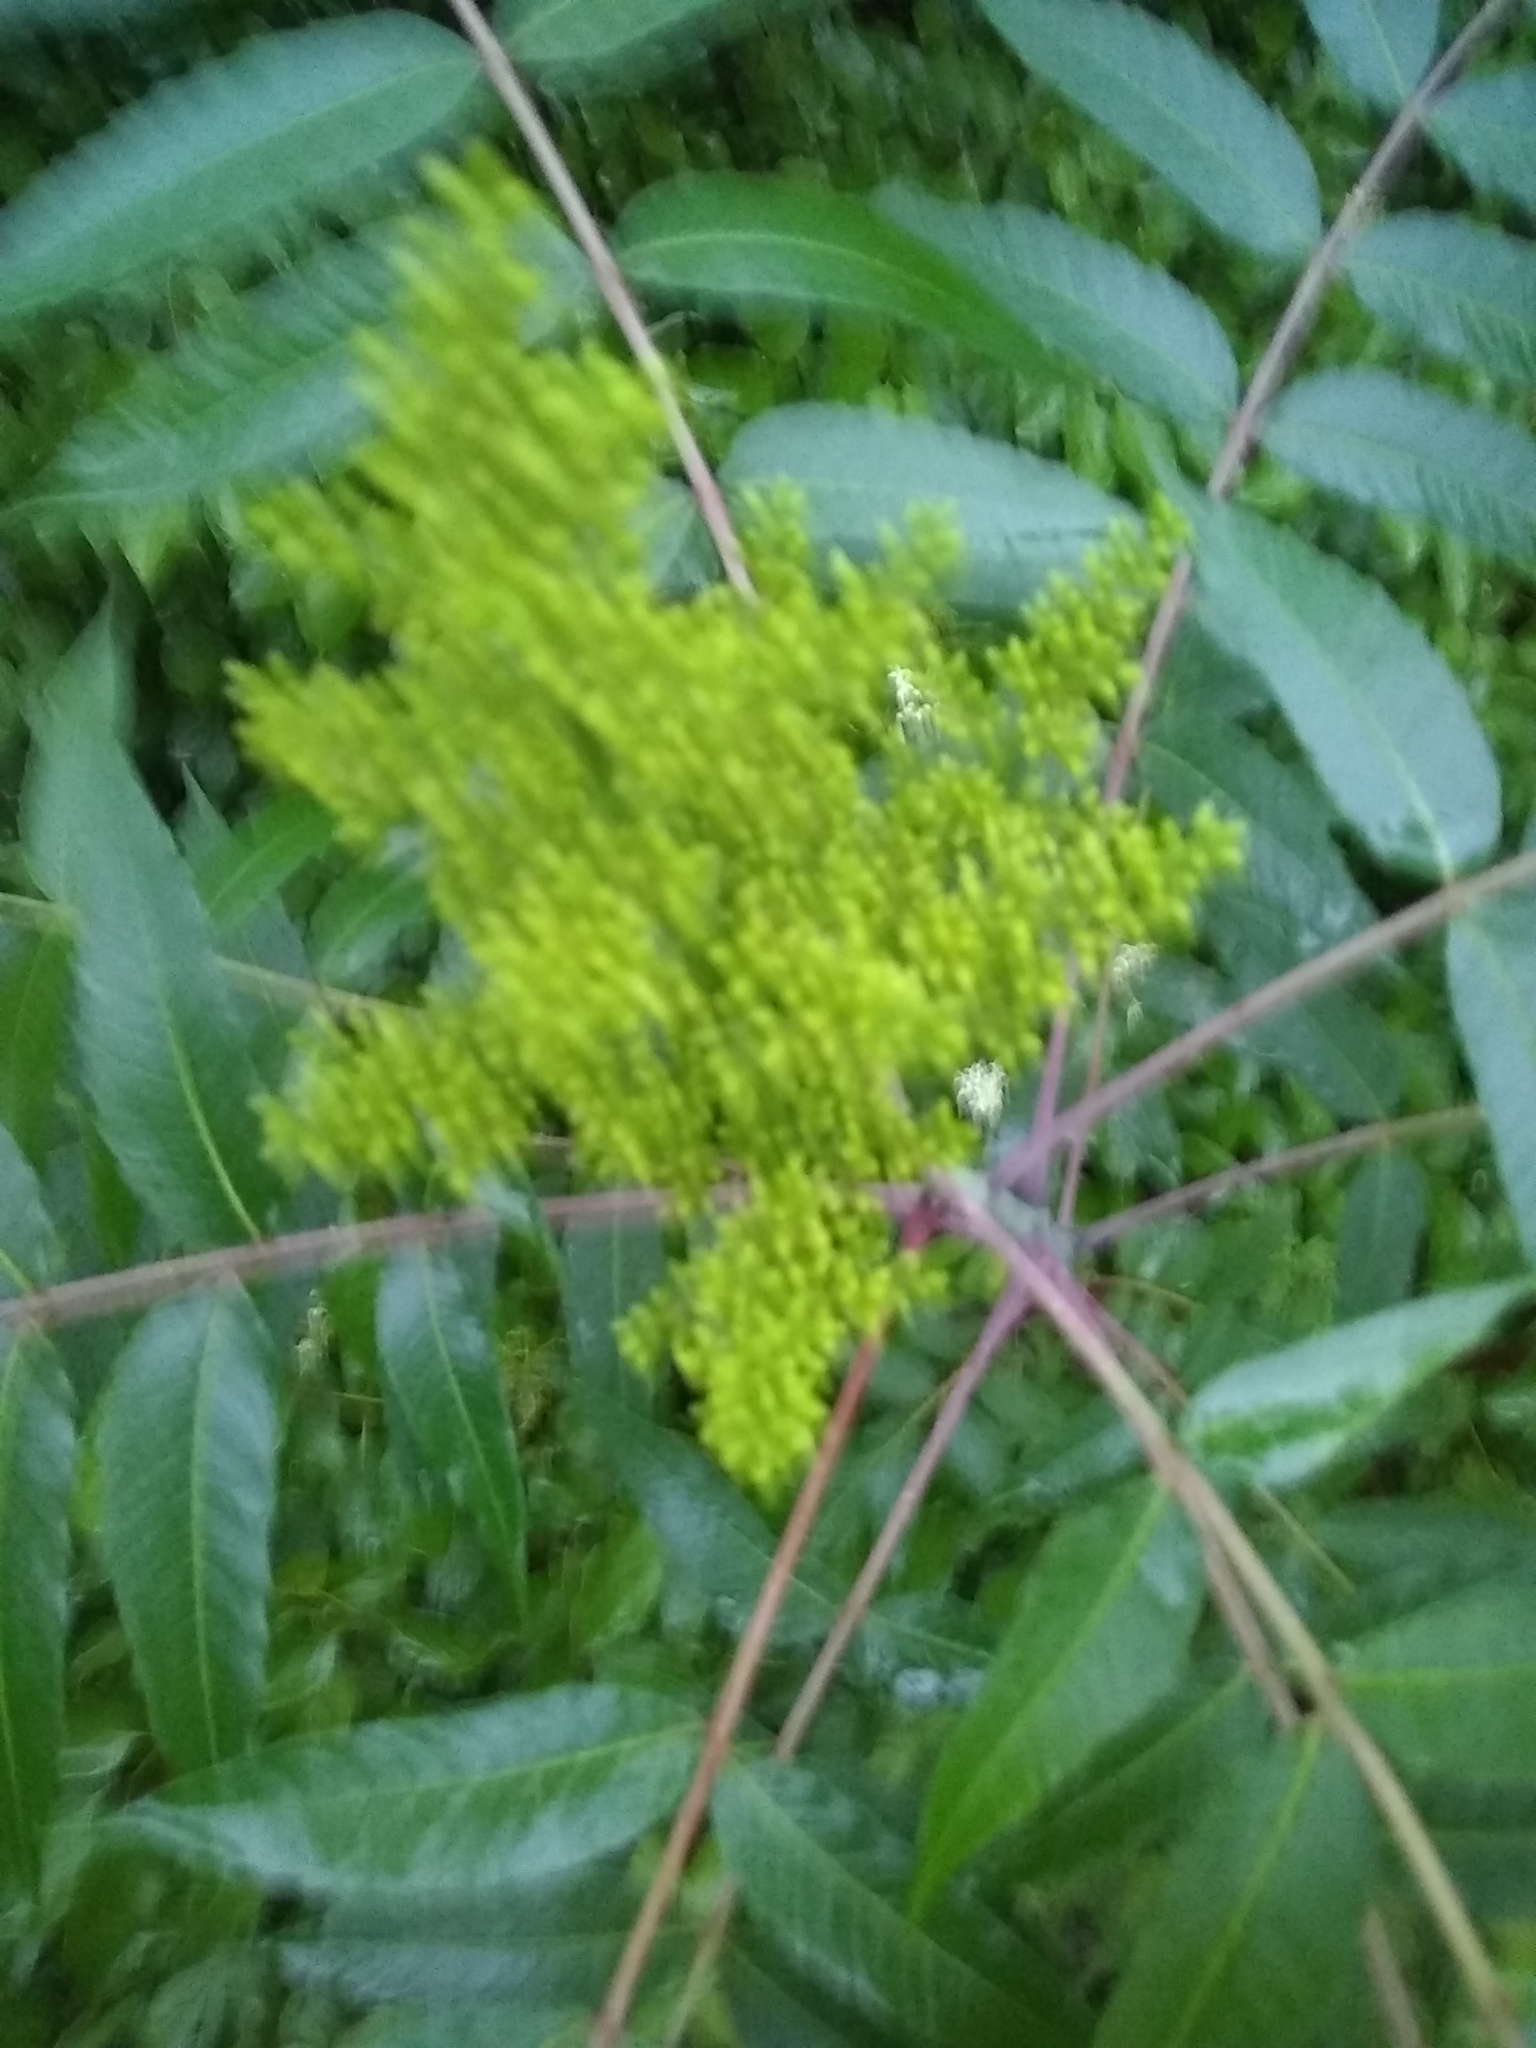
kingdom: Plantae
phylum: Tracheophyta
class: Magnoliopsida
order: Sapindales
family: Anacardiaceae
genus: Rhus
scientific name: Rhus glabra
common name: Scarlet sumac
